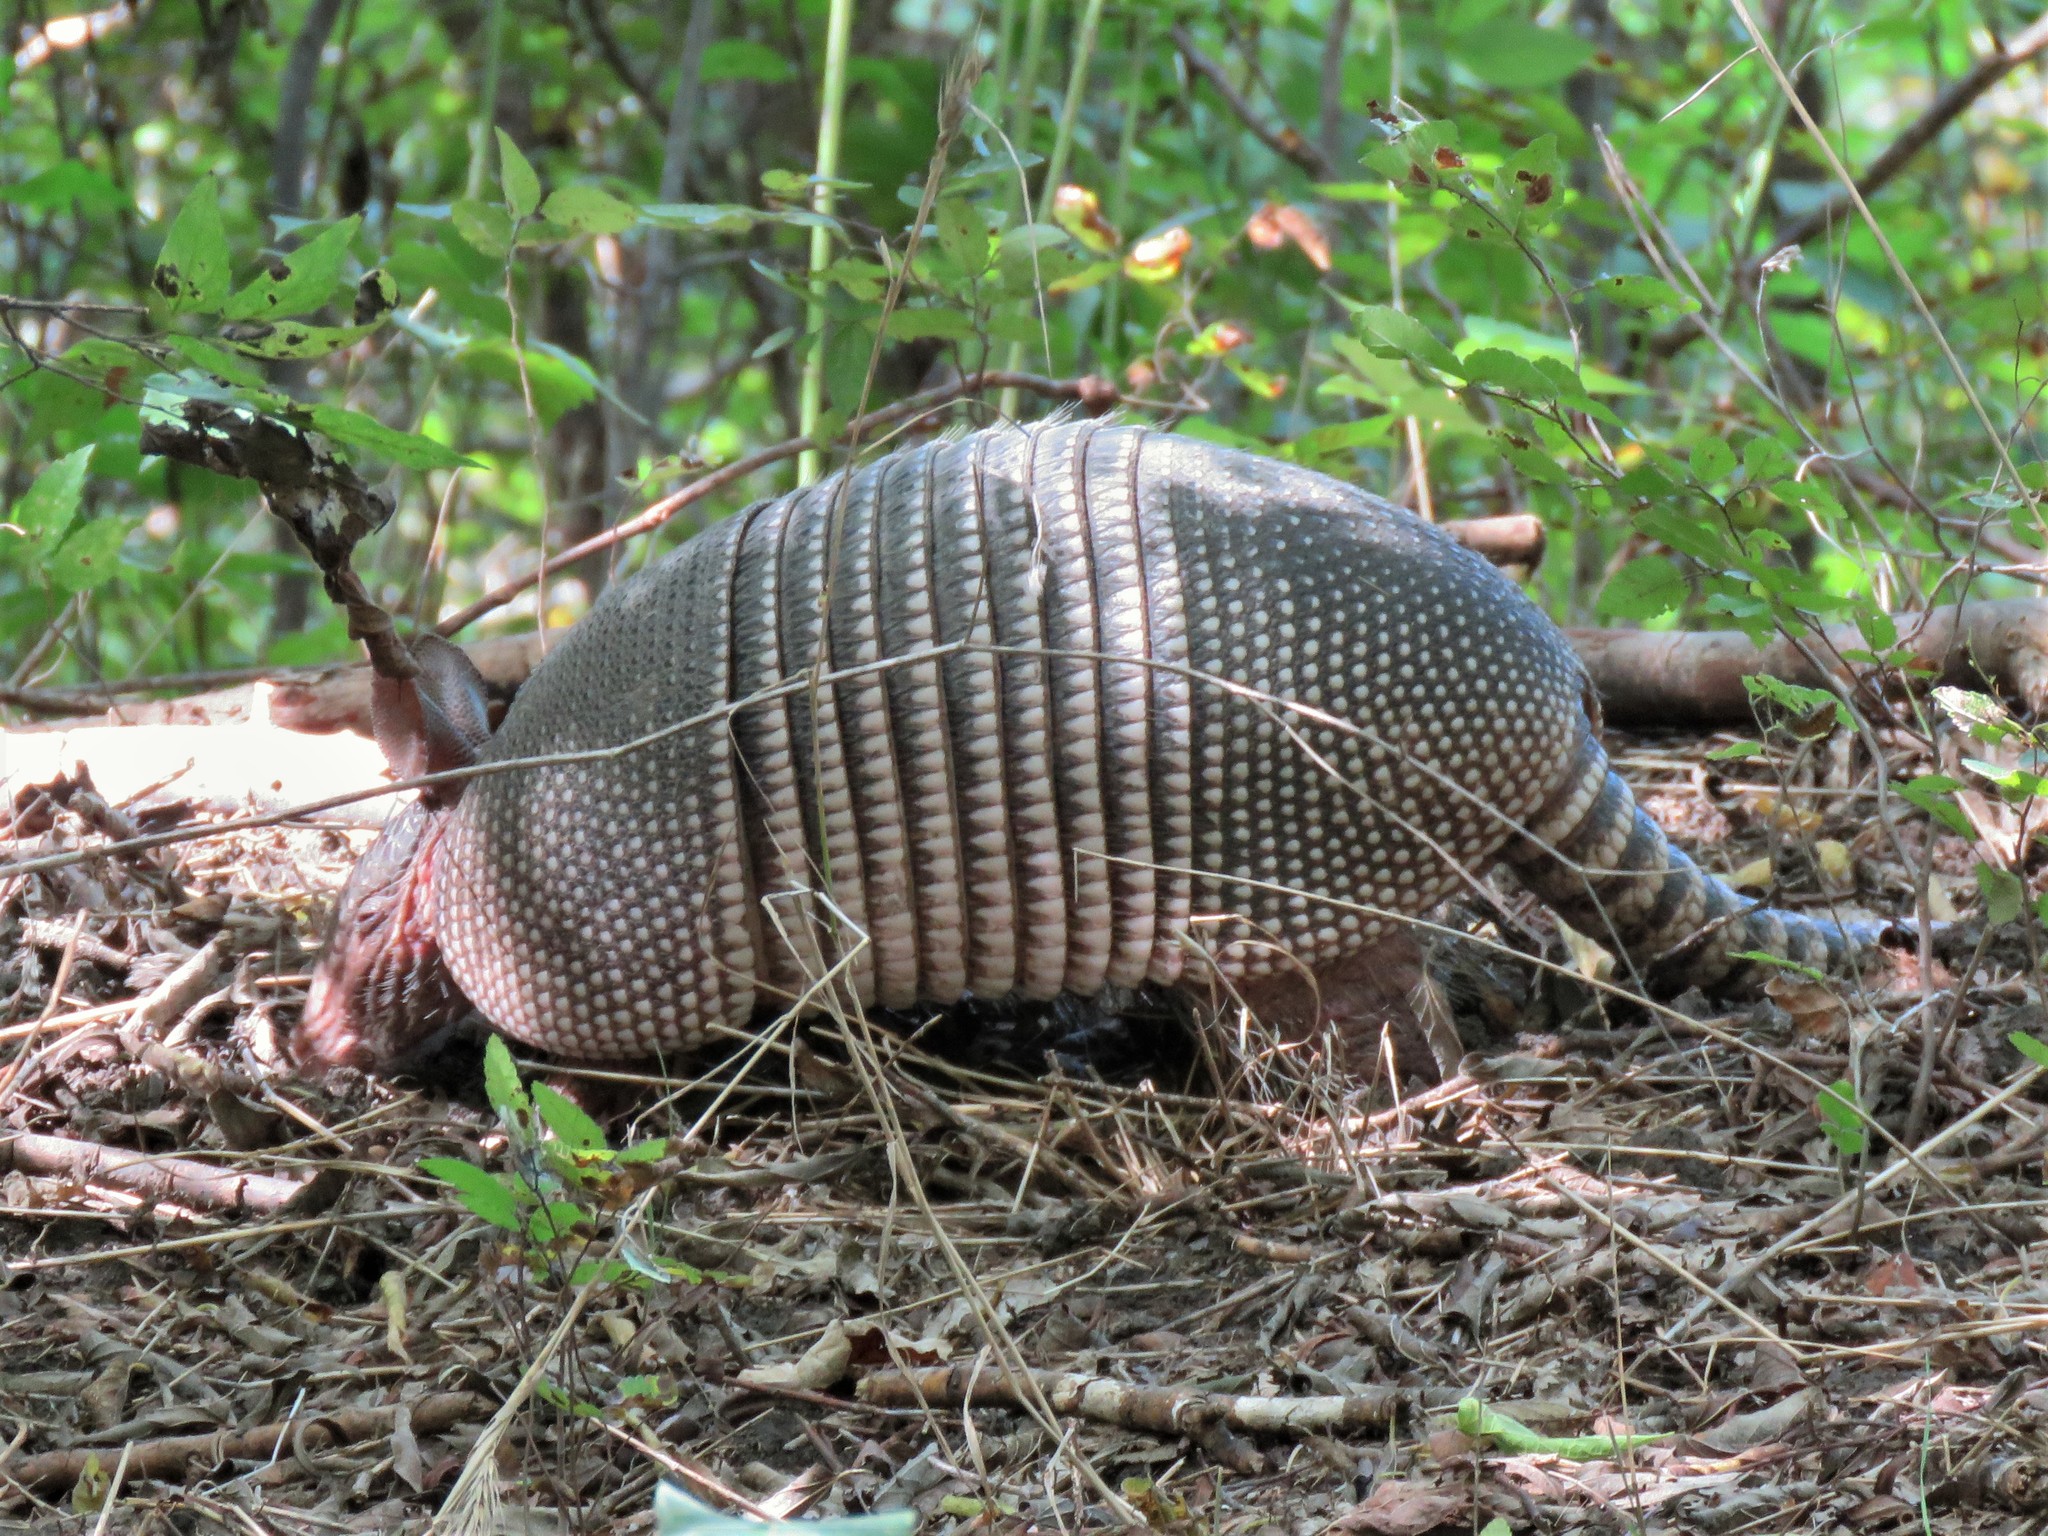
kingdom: Animalia
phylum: Chordata
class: Mammalia
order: Cingulata
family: Dasypodidae
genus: Dasypus
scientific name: Dasypus novemcinctus
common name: Nine-banded armadillo
